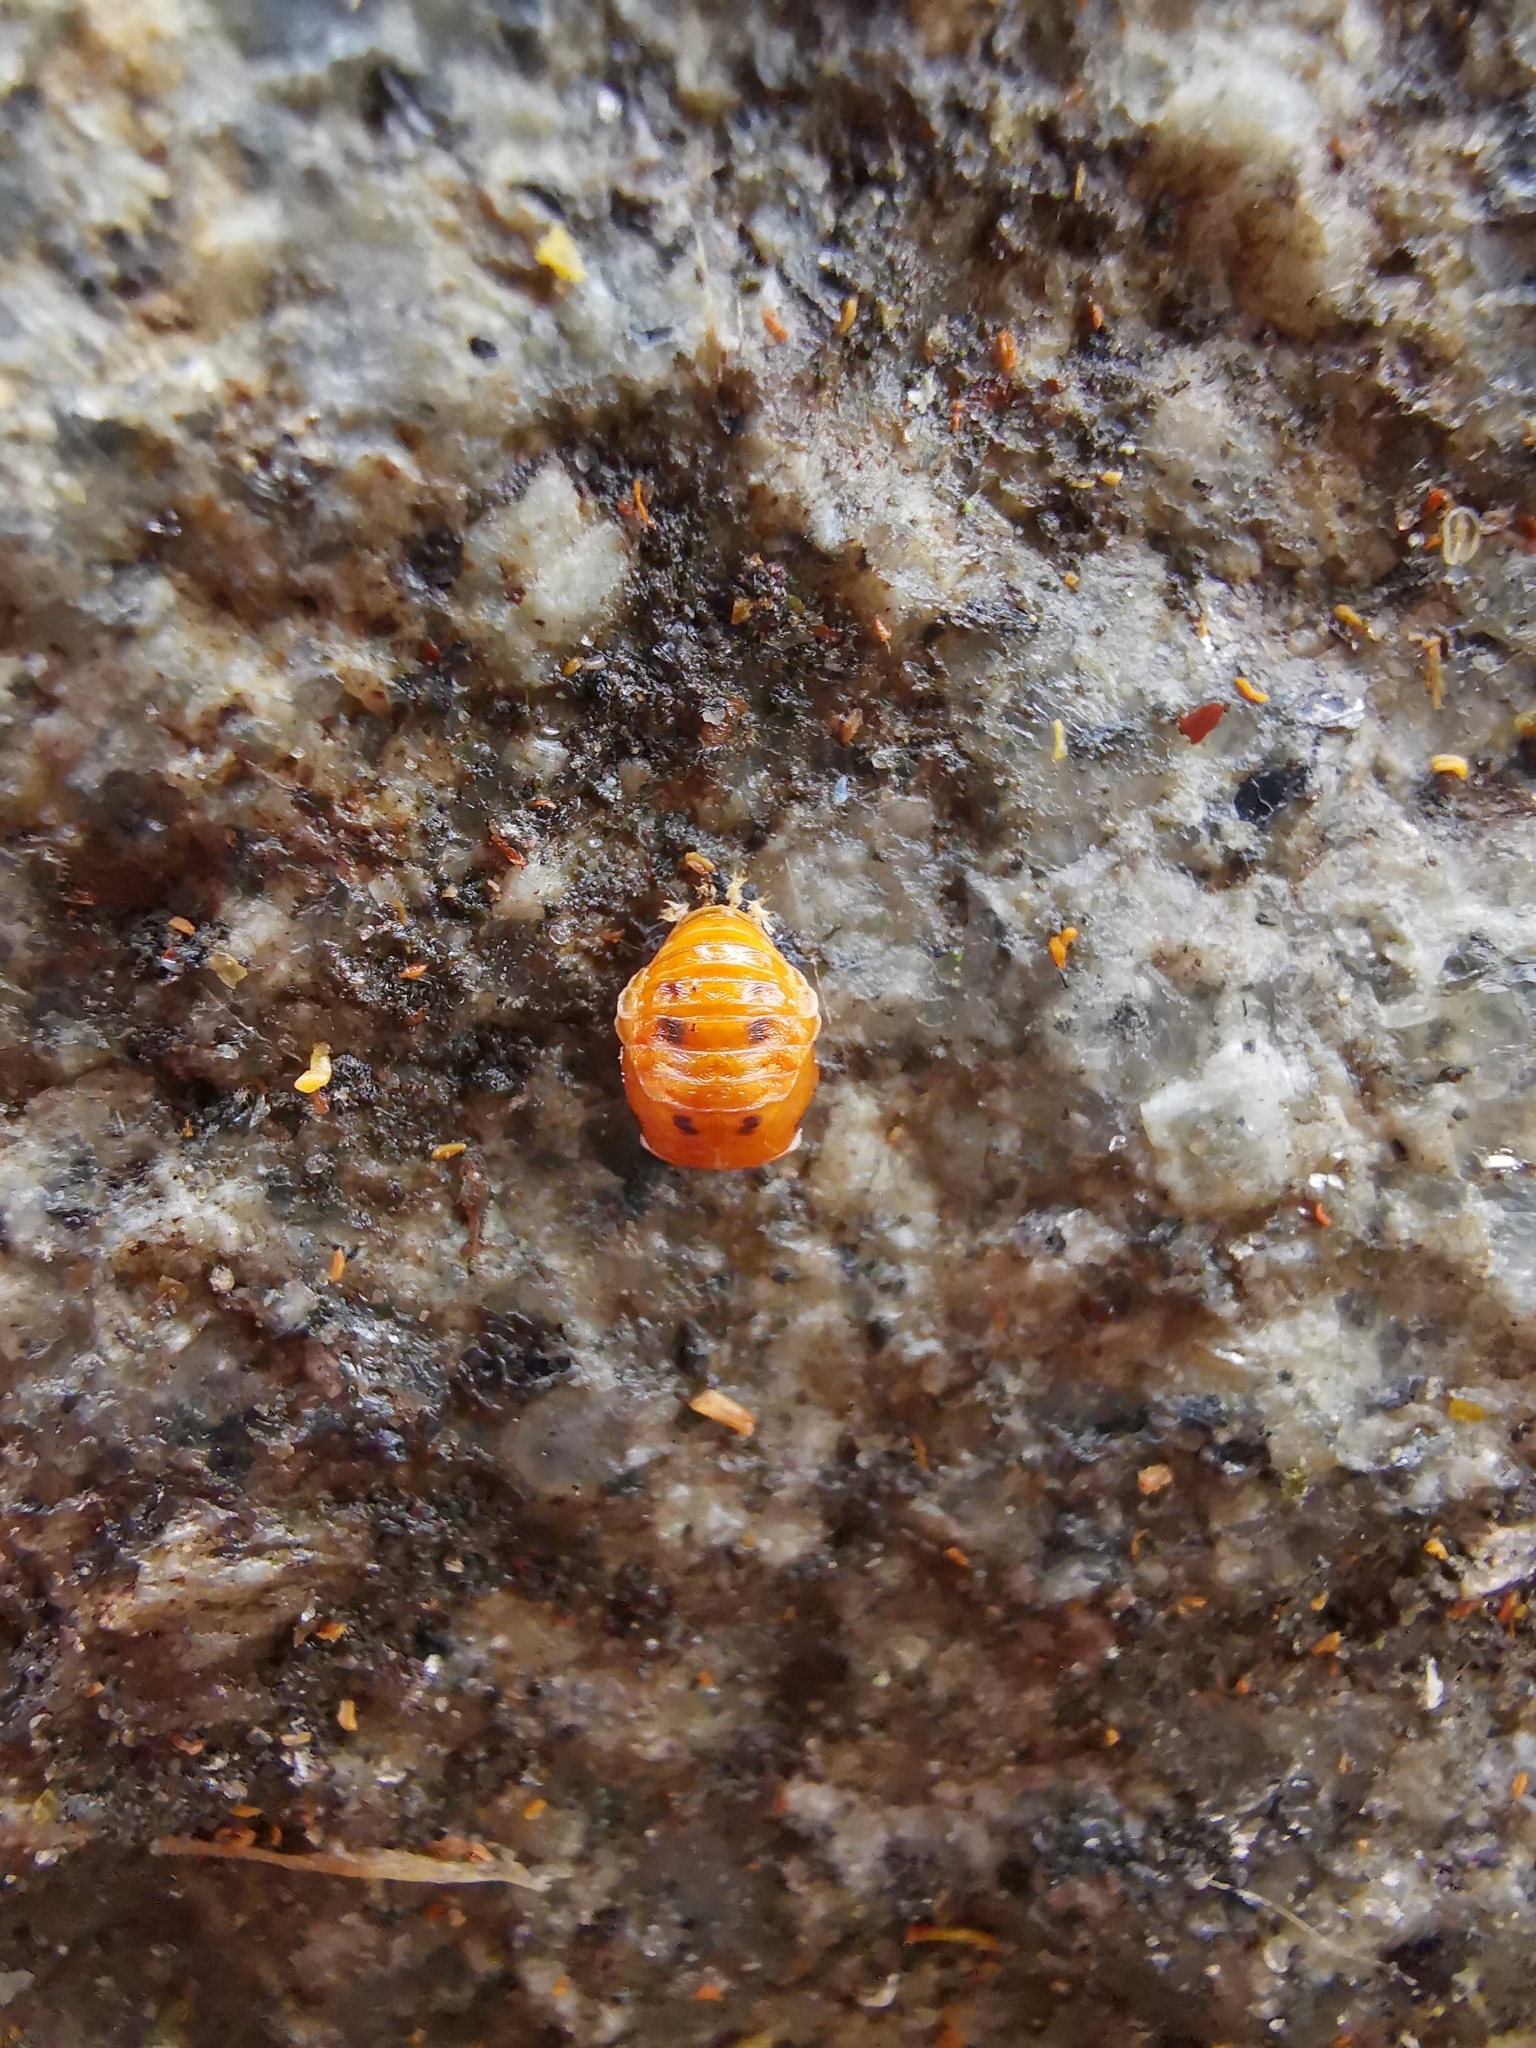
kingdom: Animalia
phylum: Arthropoda
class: Insecta
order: Coleoptera
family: Coccinellidae
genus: Harmonia
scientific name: Harmonia axyridis
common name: Harlequin ladybird
